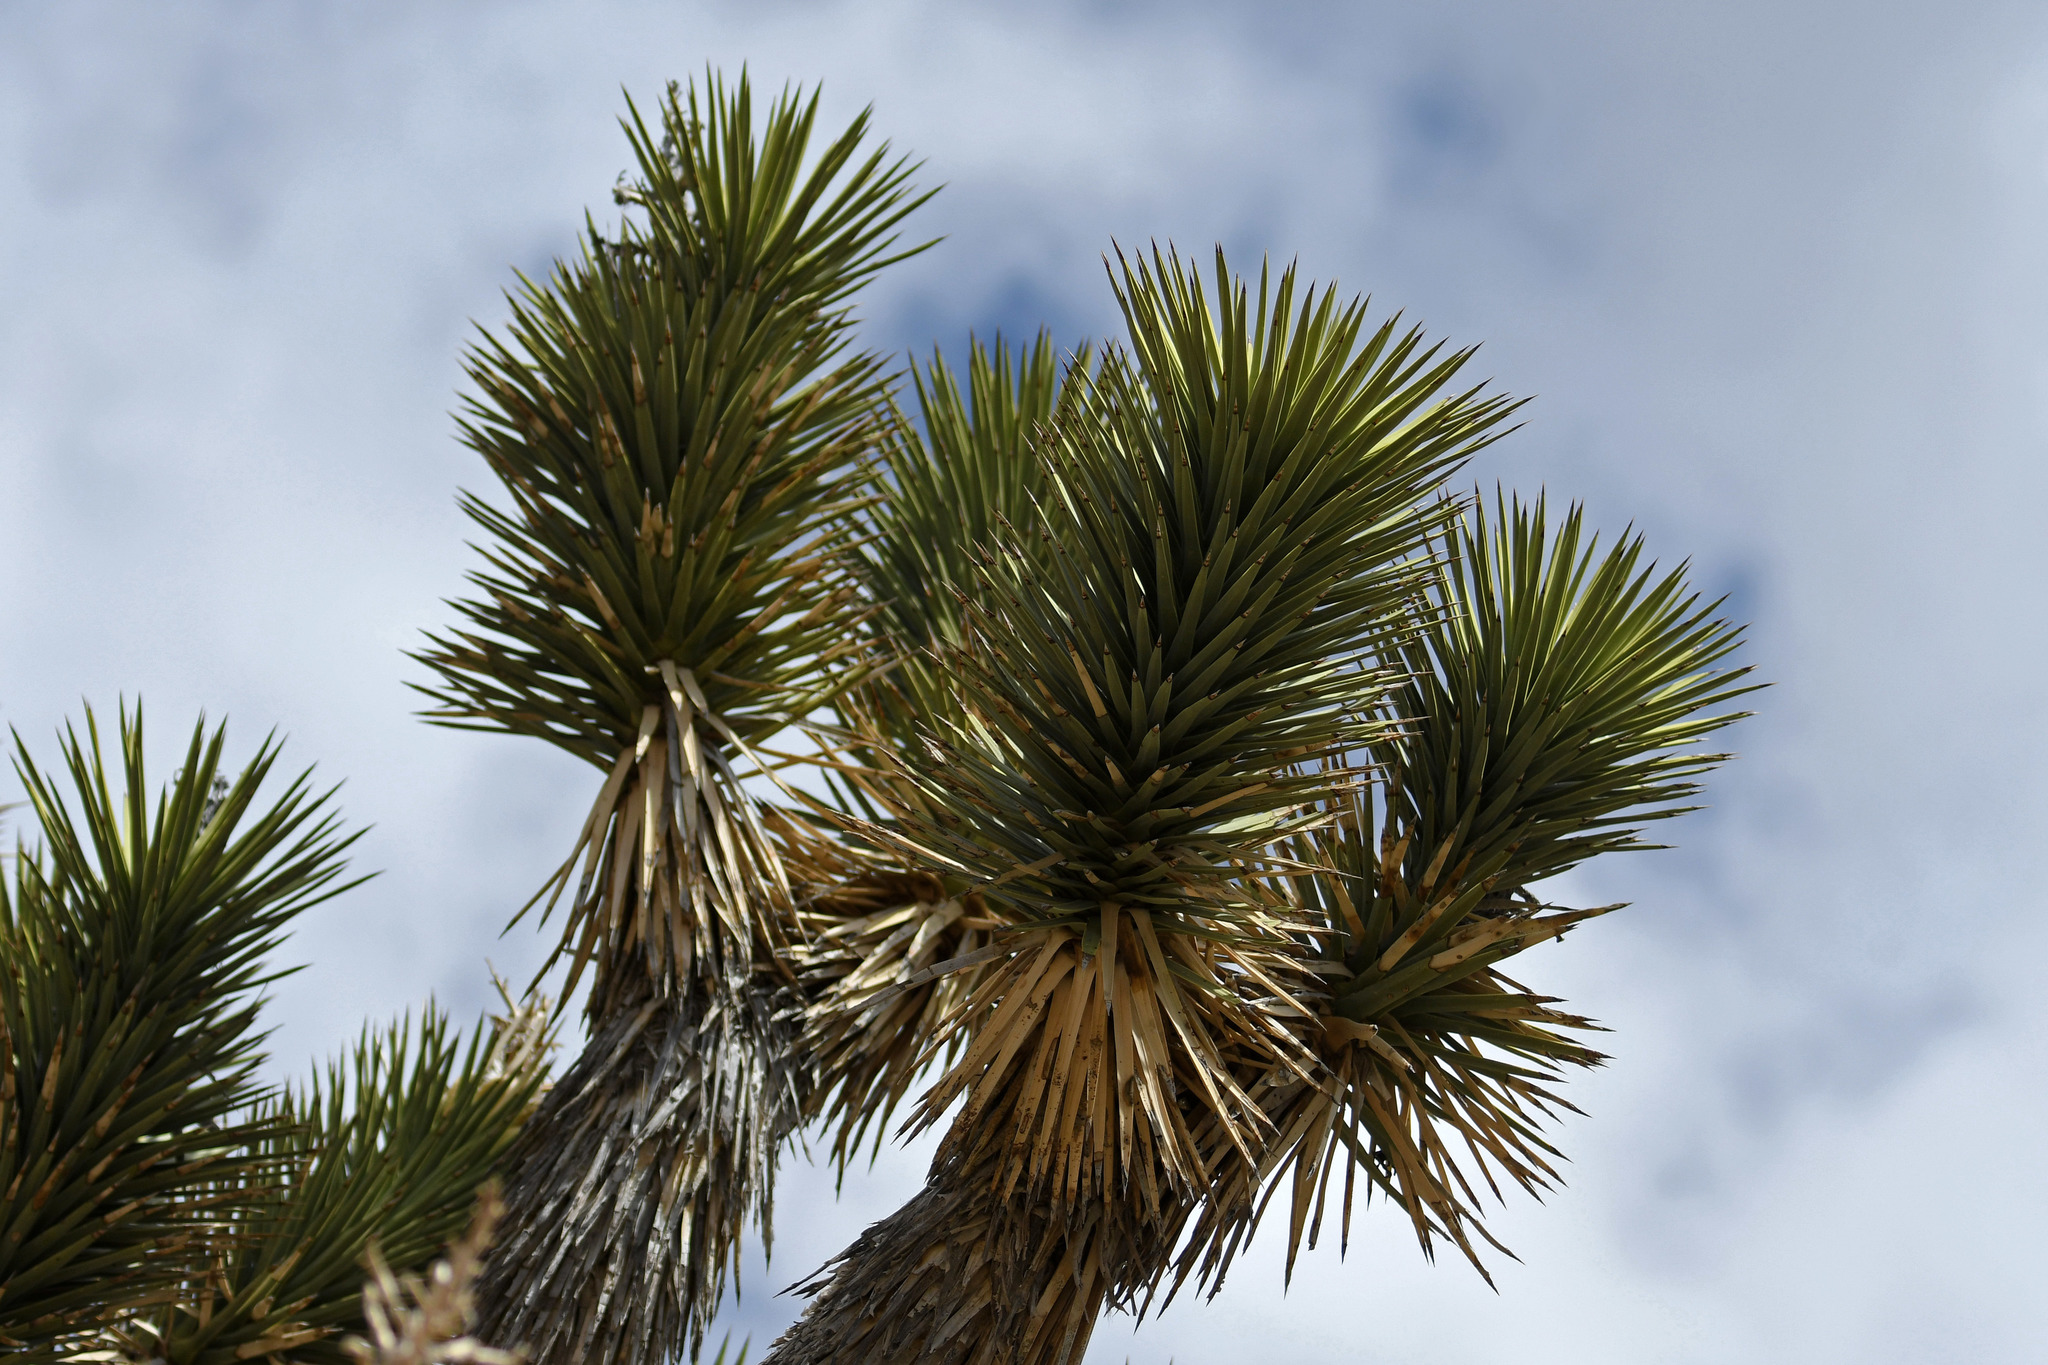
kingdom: Plantae
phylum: Tracheophyta
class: Liliopsida
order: Asparagales
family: Asparagaceae
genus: Yucca
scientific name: Yucca brevifolia
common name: Joshua tree
